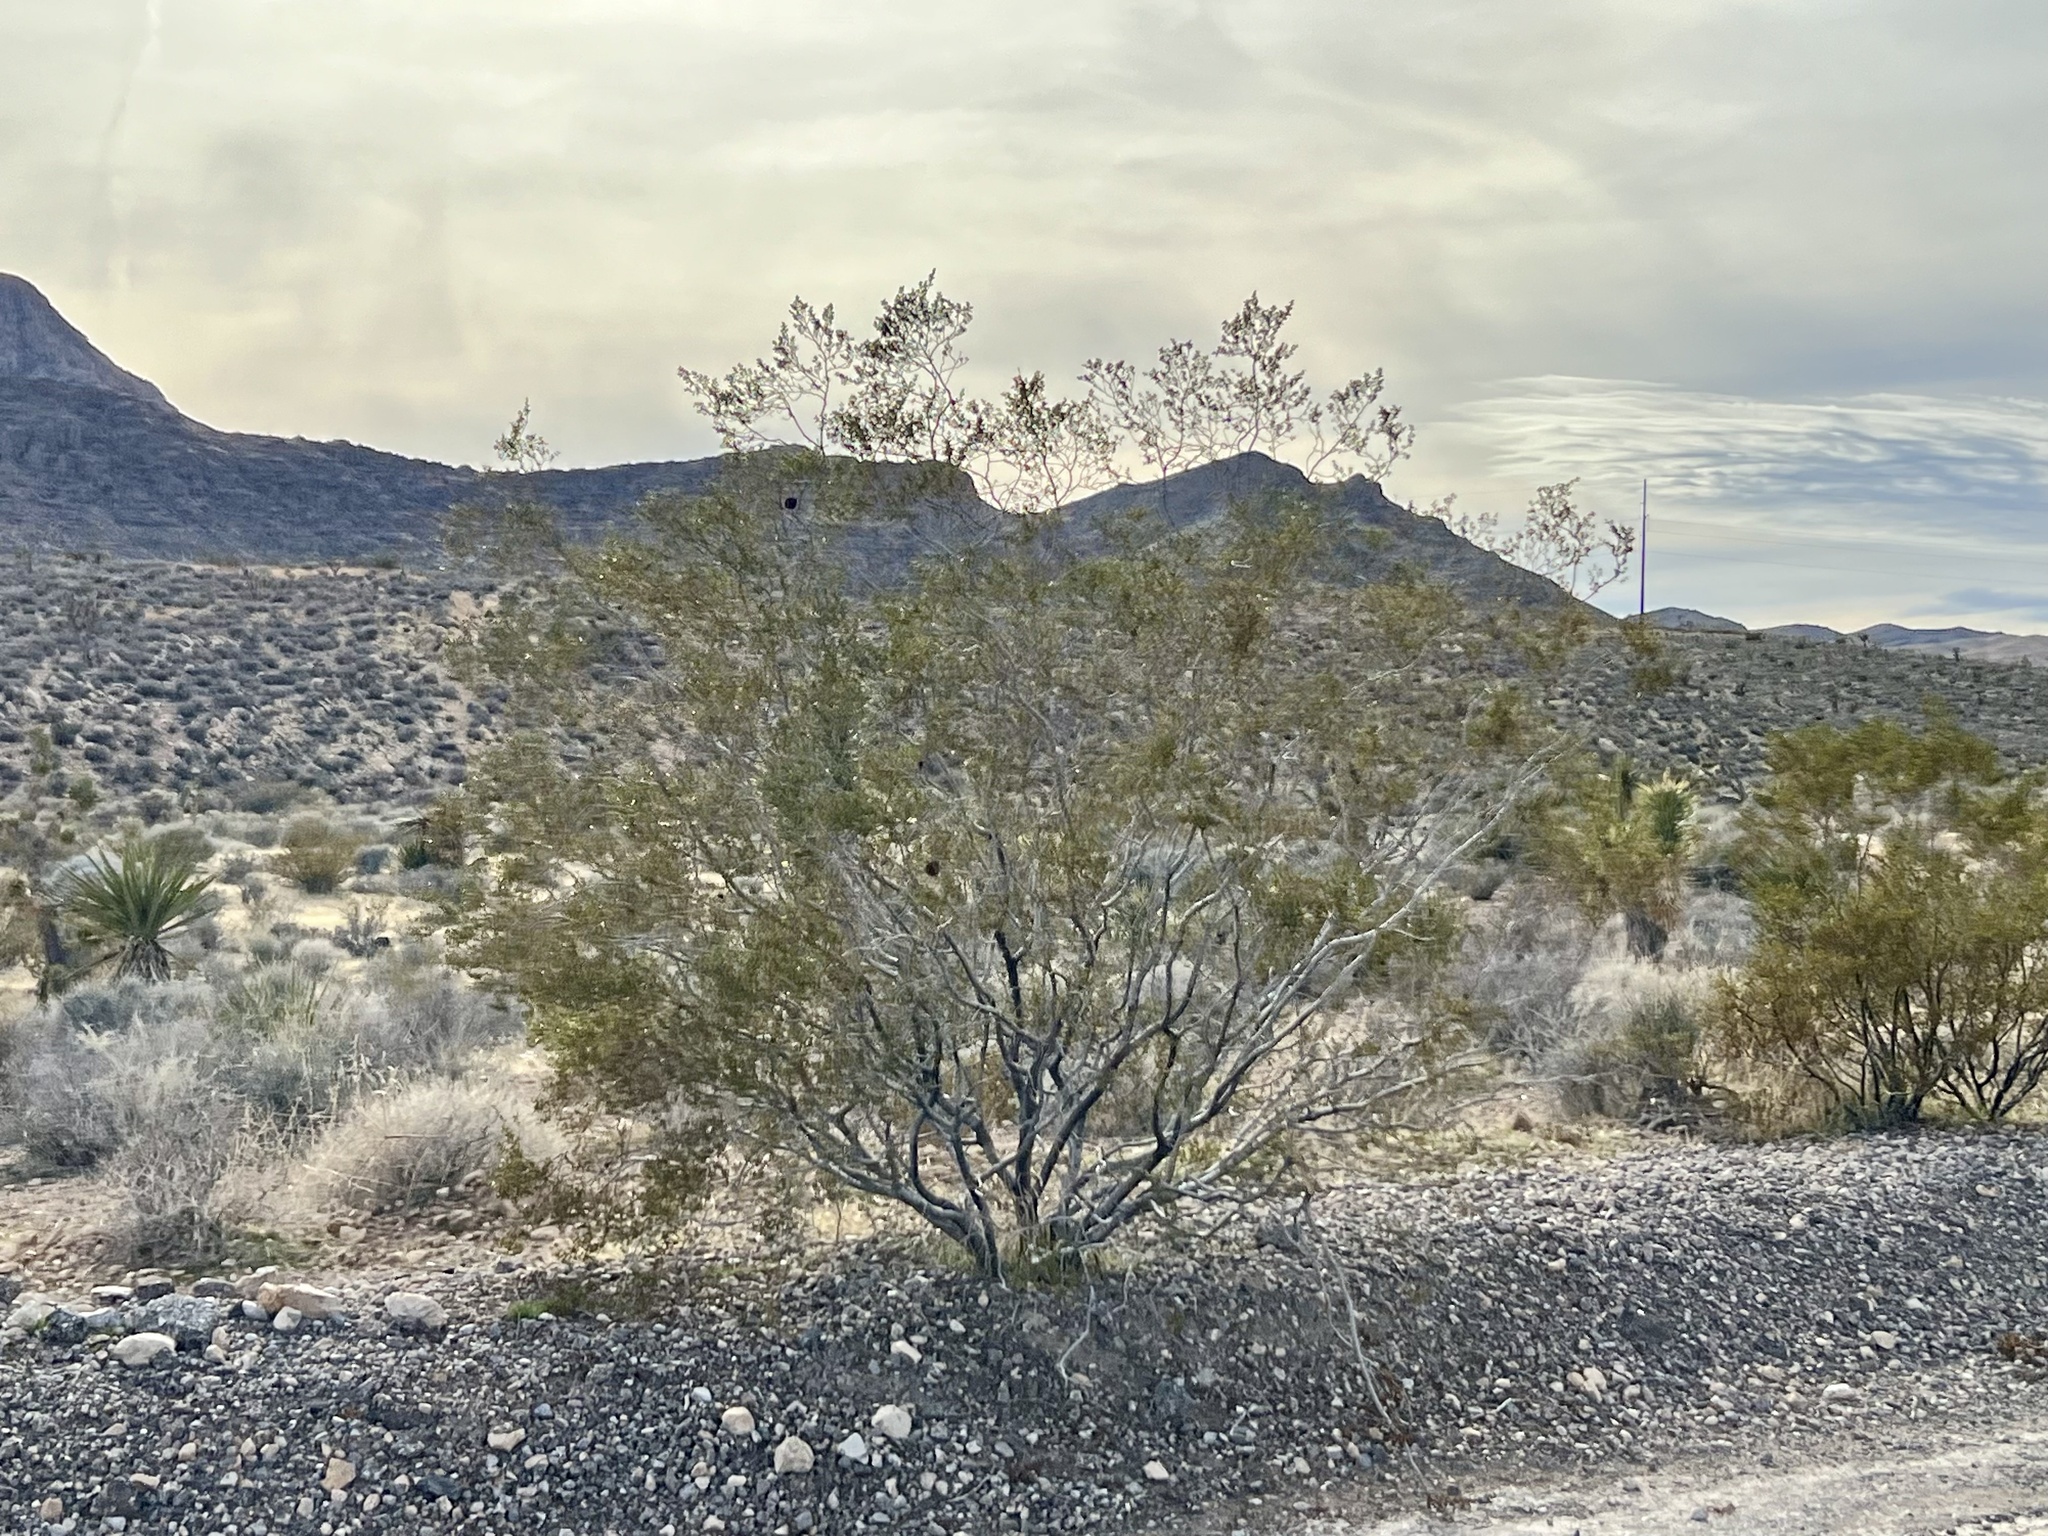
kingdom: Plantae
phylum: Tracheophyta
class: Magnoliopsida
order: Zygophyllales
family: Zygophyllaceae
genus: Larrea
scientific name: Larrea tridentata
